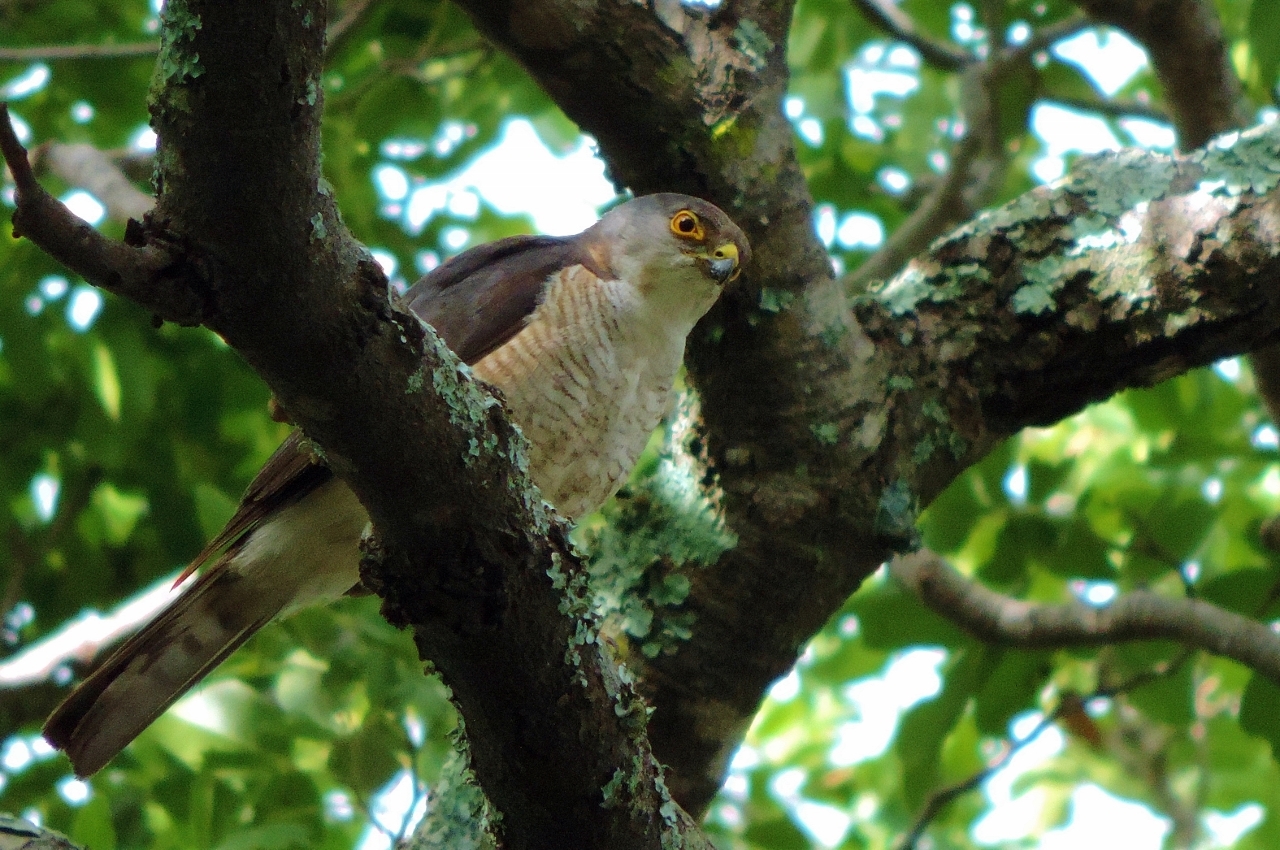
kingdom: Animalia
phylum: Chordata
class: Aves
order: Accipitriformes
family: Accipitridae
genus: Accipiter
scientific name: Accipiter minullus
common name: Little sparrowhawk
